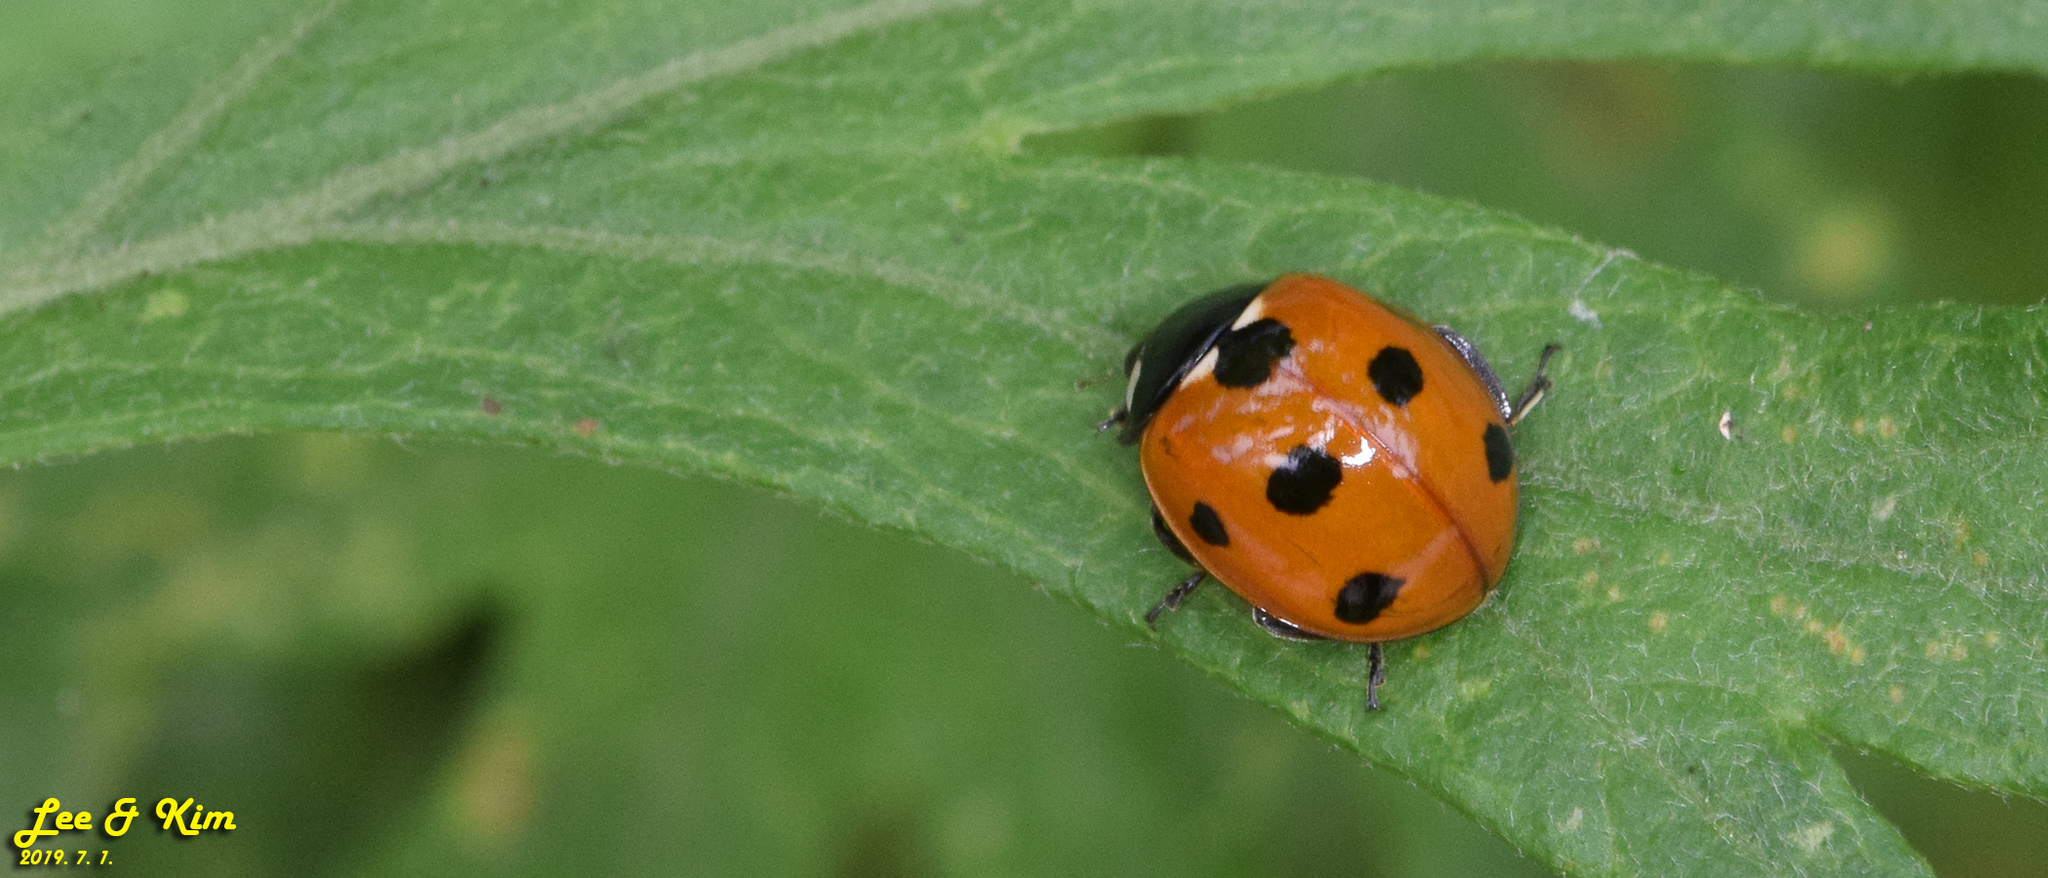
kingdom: Animalia
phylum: Arthropoda
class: Insecta
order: Coleoptera
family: Coccinellidae
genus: Coccinella
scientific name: Coccinella septempunctata
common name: Sevenspotted lady beetle
